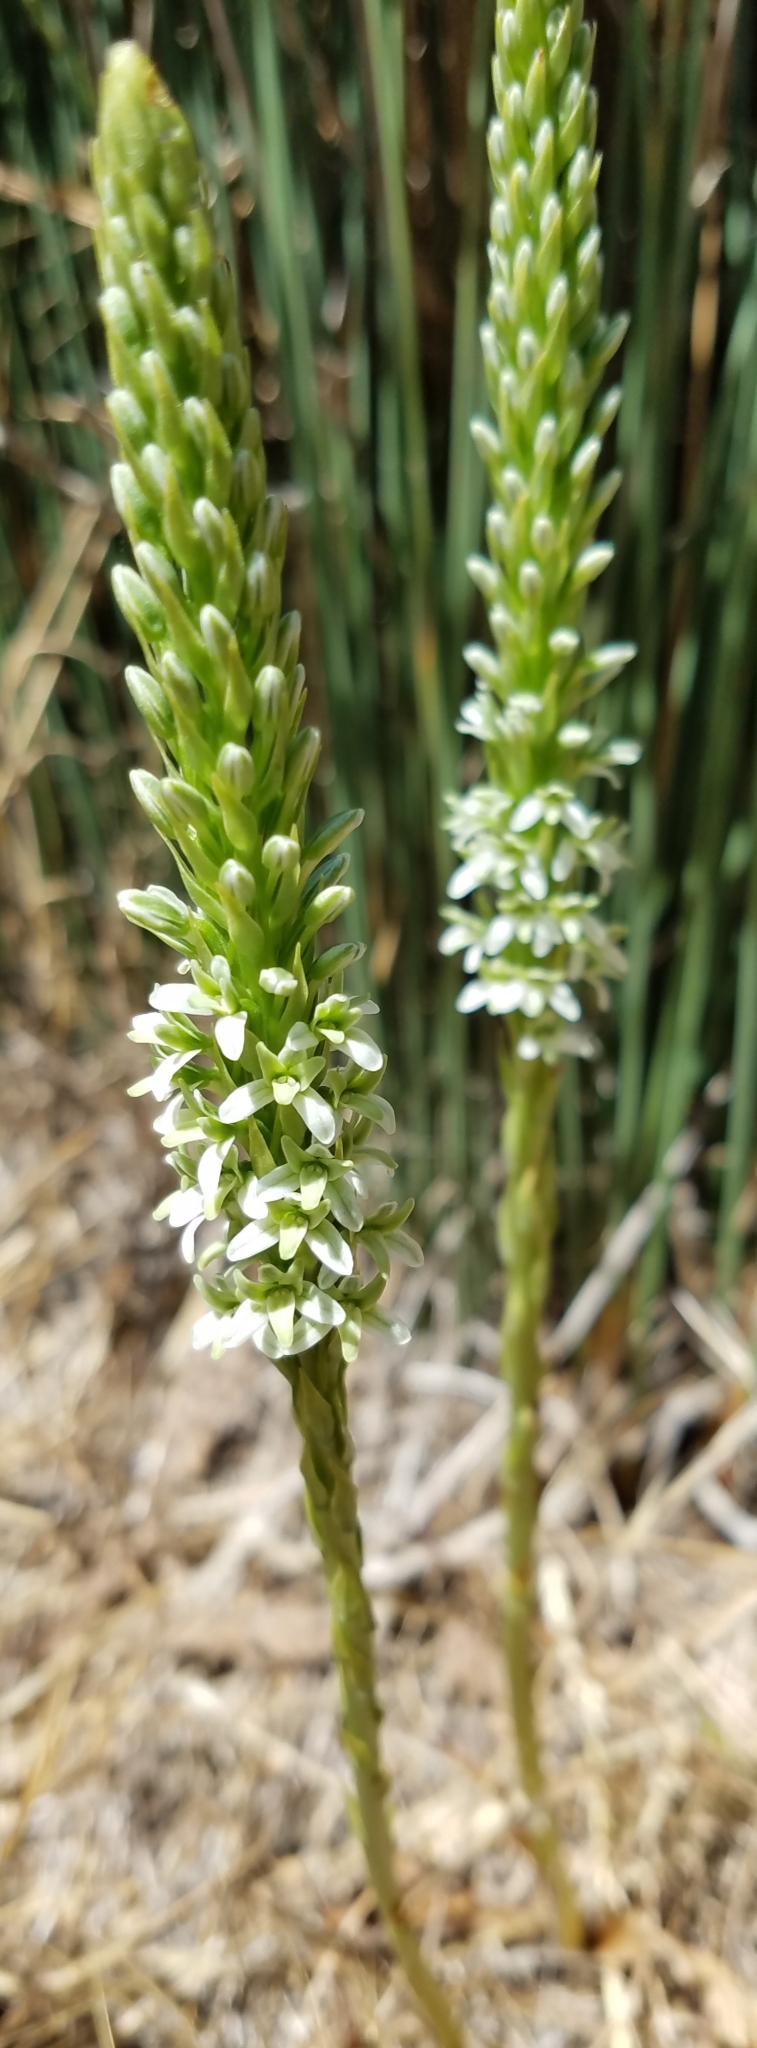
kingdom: Plantae
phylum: Tracheophyta
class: Liliopsida
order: Asparagales
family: Orchidaceae
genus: Platanthera
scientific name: Platanthera elegans
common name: Coast piperia
